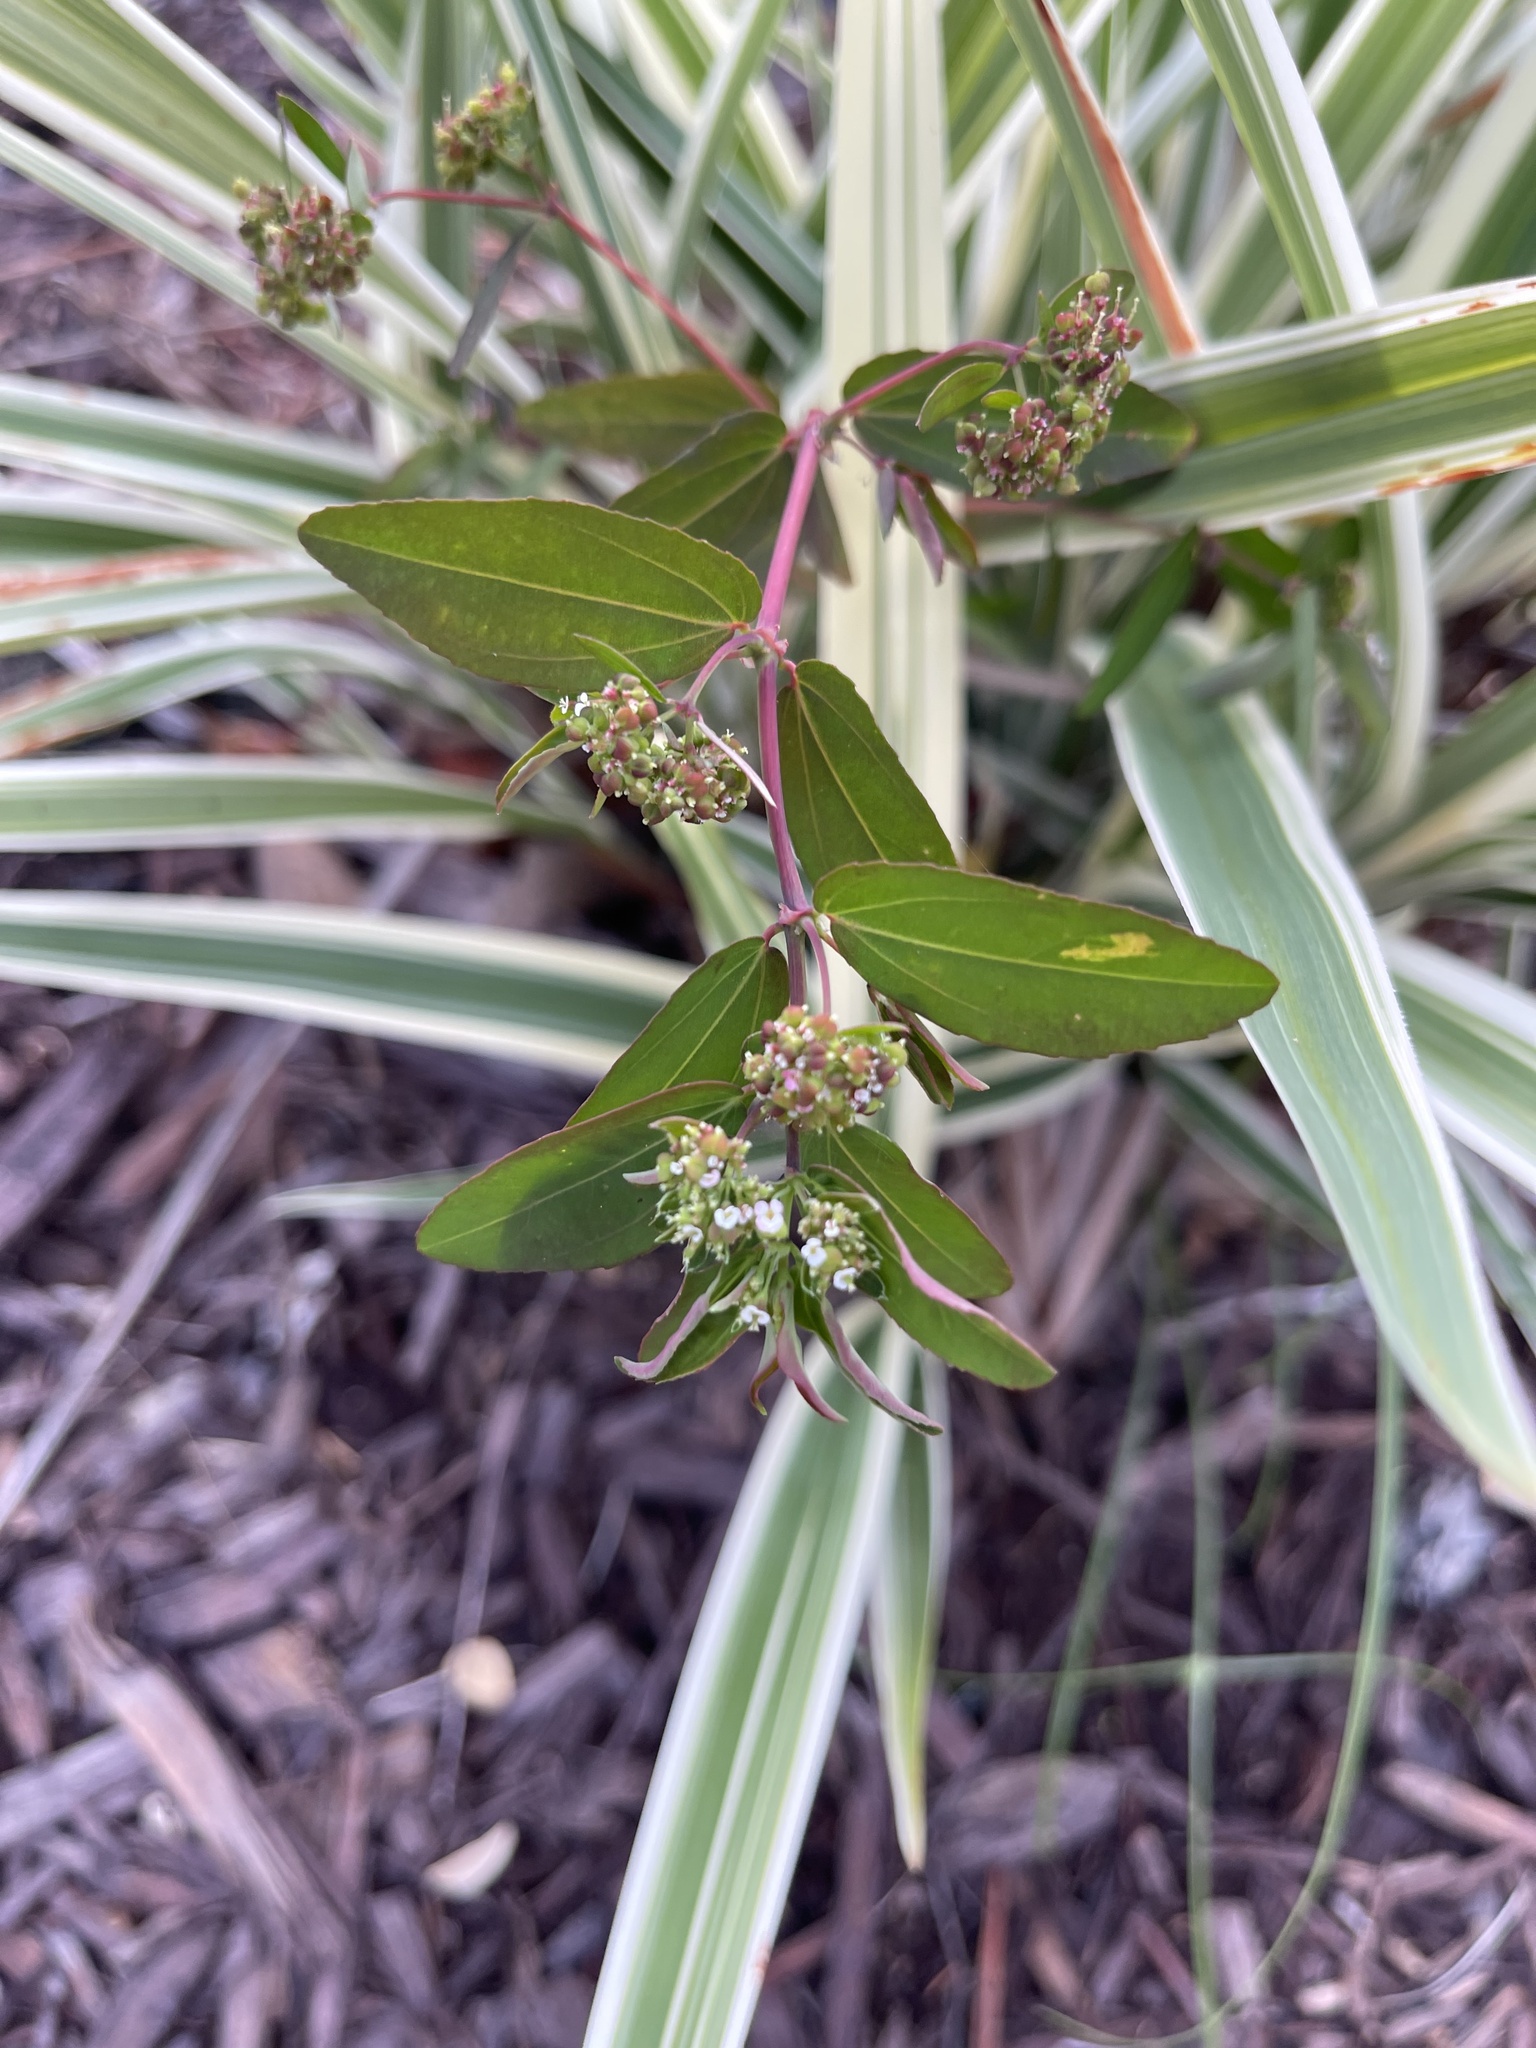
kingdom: Plantae
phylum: Tracheophyta
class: Magnoliopsida
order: Malpighiales
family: Euphorbiaceae
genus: Euphorbia
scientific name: Euphorbia hypericifolia
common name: Graceful sandmat
